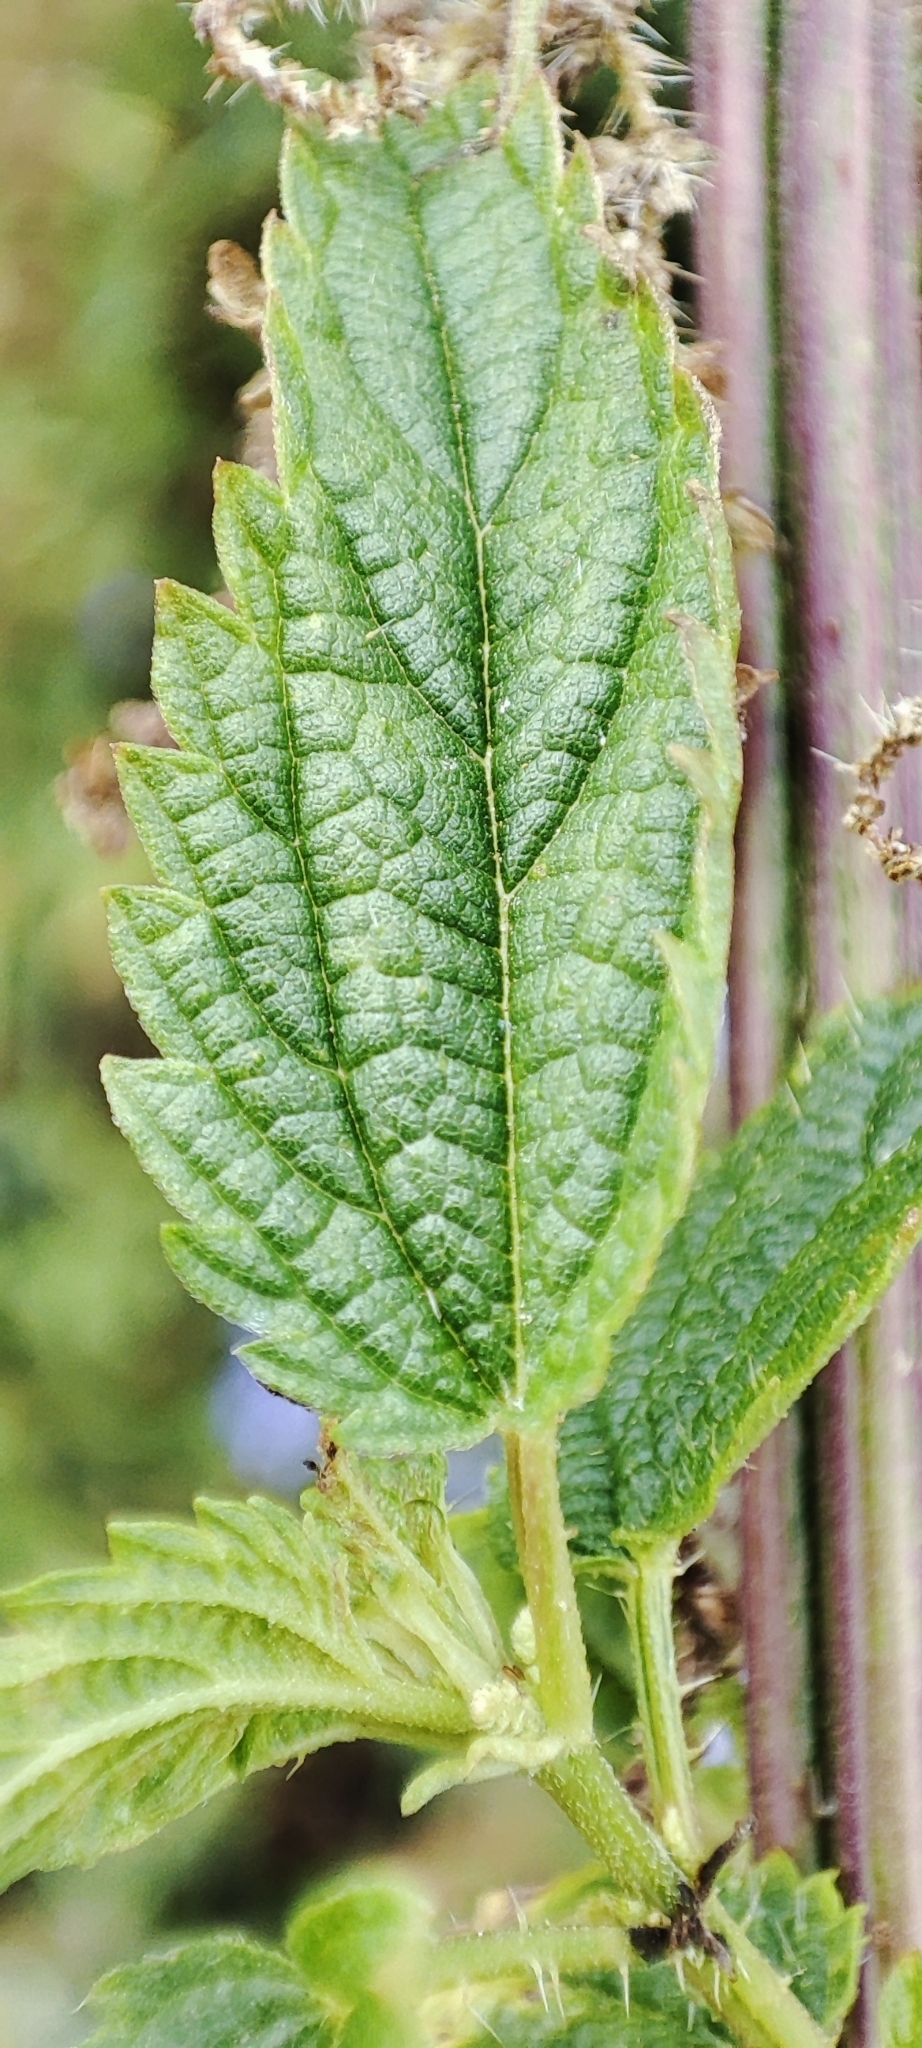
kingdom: Plantae
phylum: Tracheophyta
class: Magnoliopsida
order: Rosales
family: Urticaceae
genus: Urtica
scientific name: Urtica dioica
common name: Common nettle
